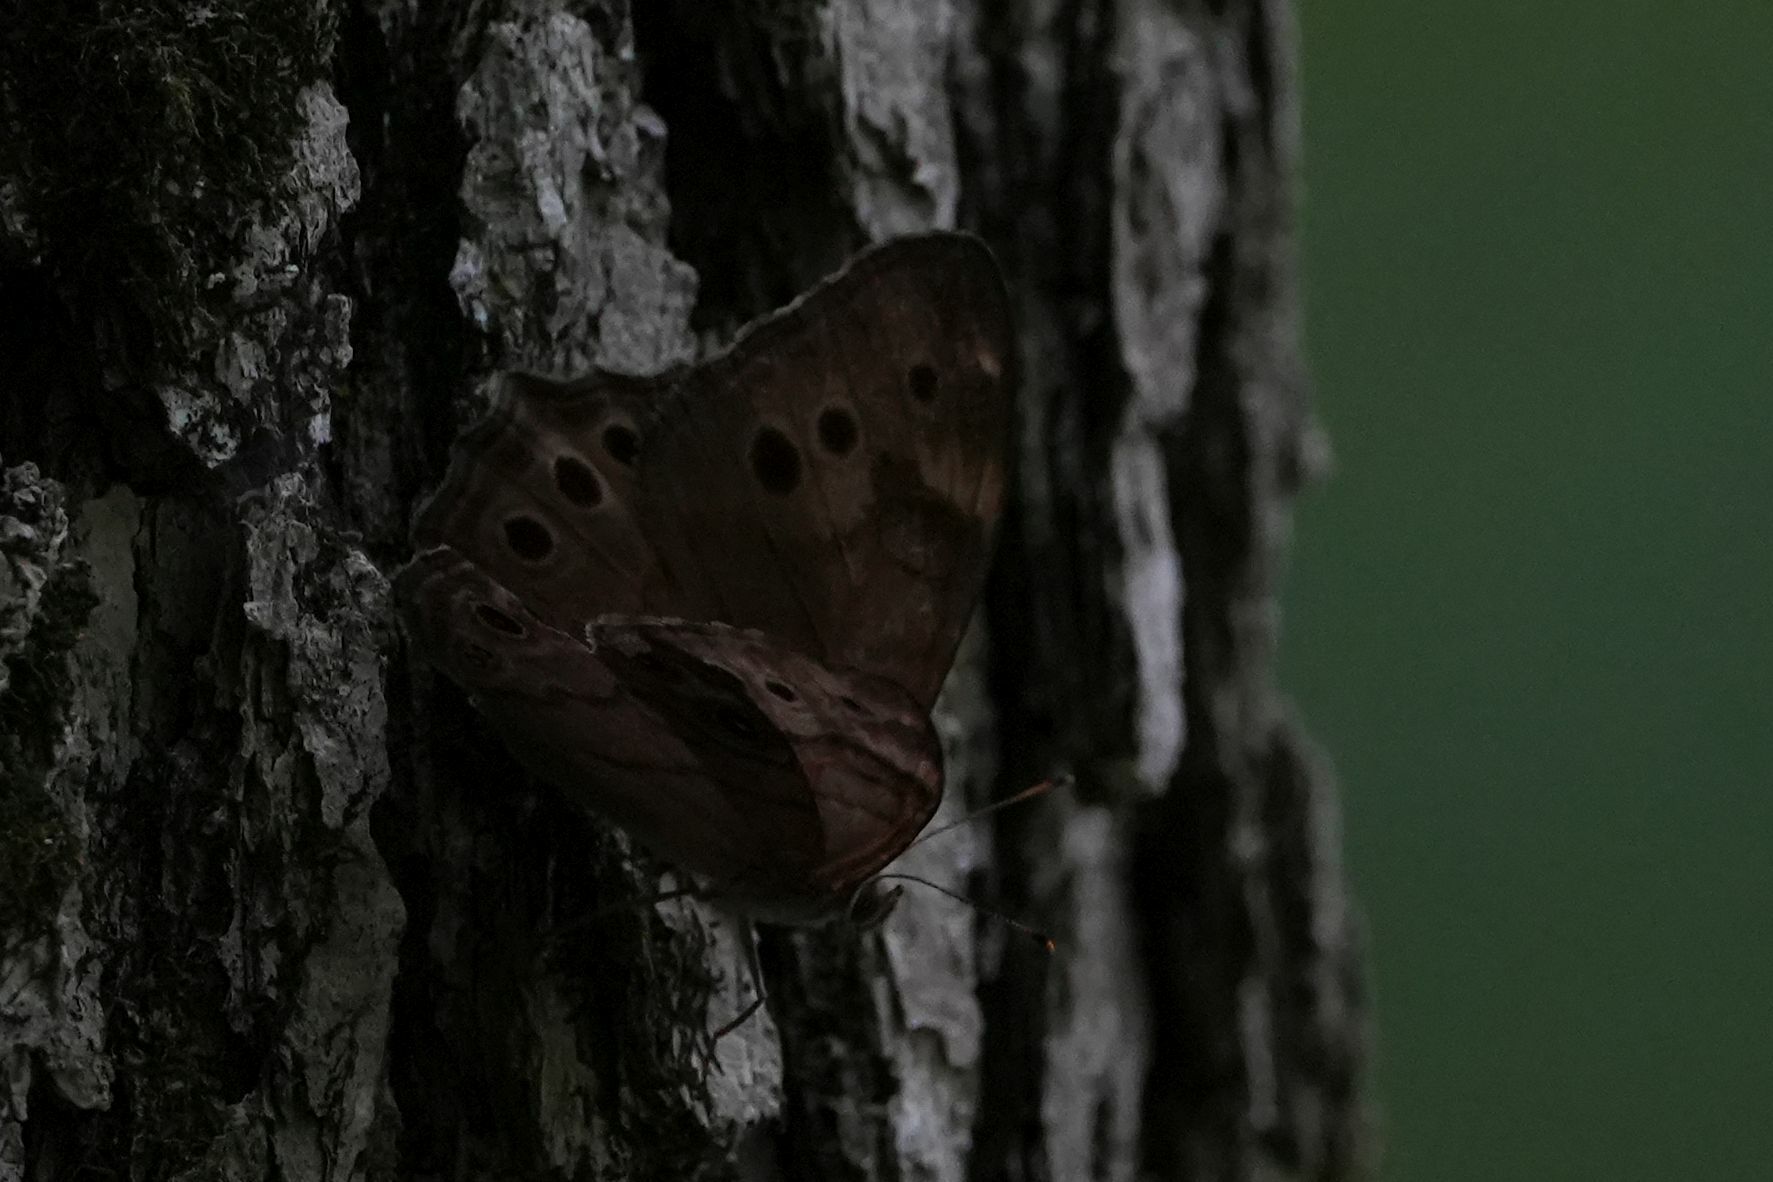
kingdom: Animalia
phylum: Arthropoda
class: Insecta
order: Lepidoptera
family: Nymphalidae
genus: Lethe
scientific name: Lethe anthedon
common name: Northern pearly-eye
